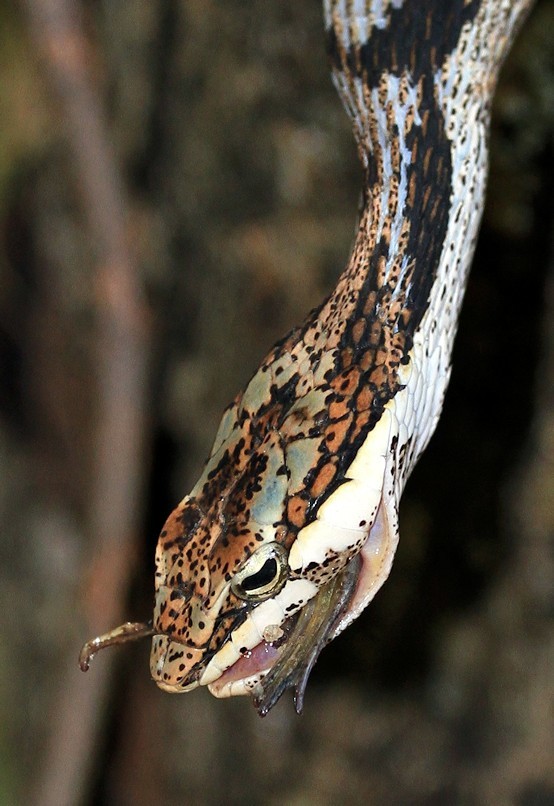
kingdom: Animalia
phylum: Chordata
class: Squamata
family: Colubridae
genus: Thelotornis
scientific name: Thelotornis capensis
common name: Savanna vine snake
